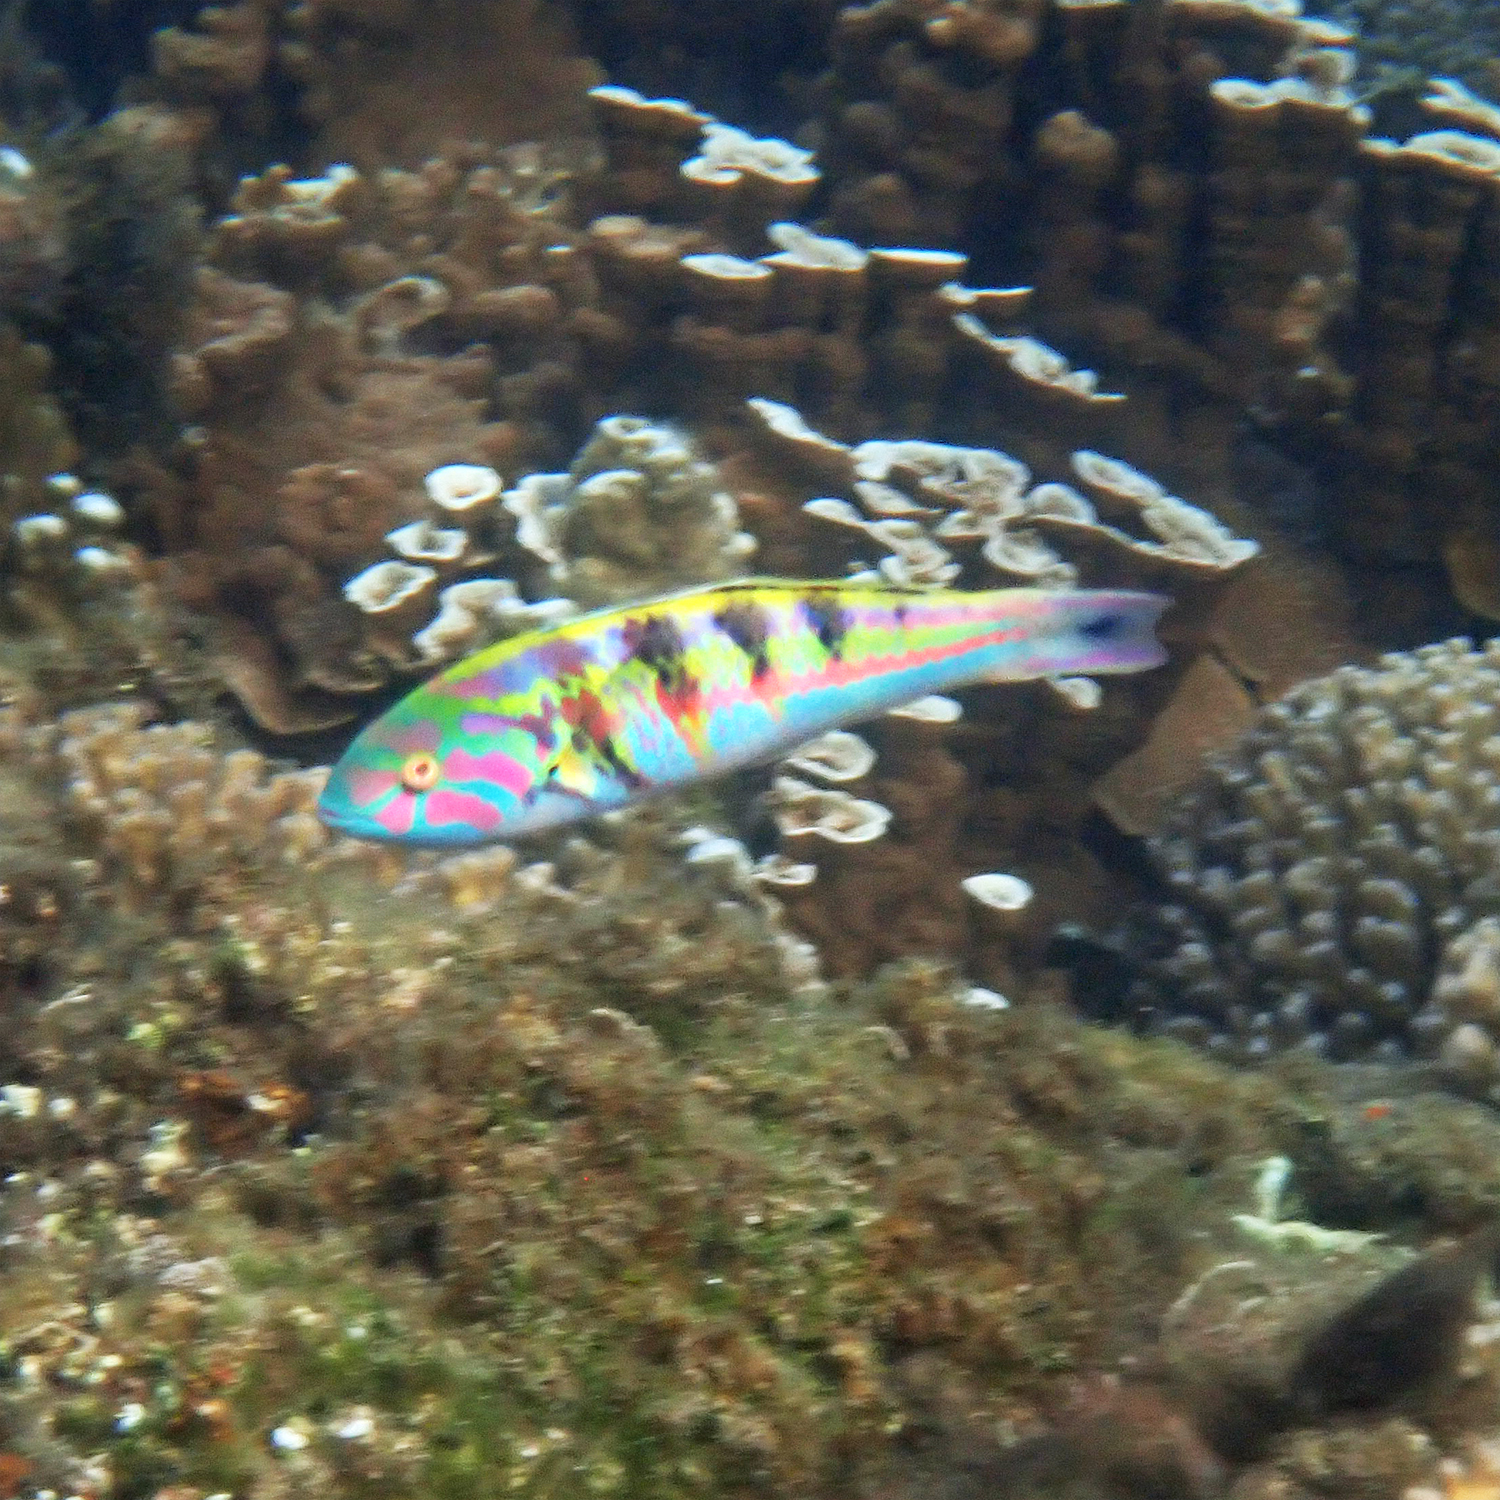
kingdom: Animalia
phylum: Chordata
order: Perciformes
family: Labridae
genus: Thalassoma
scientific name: Thalassoma hardwicke
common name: Sixbar wrasse
